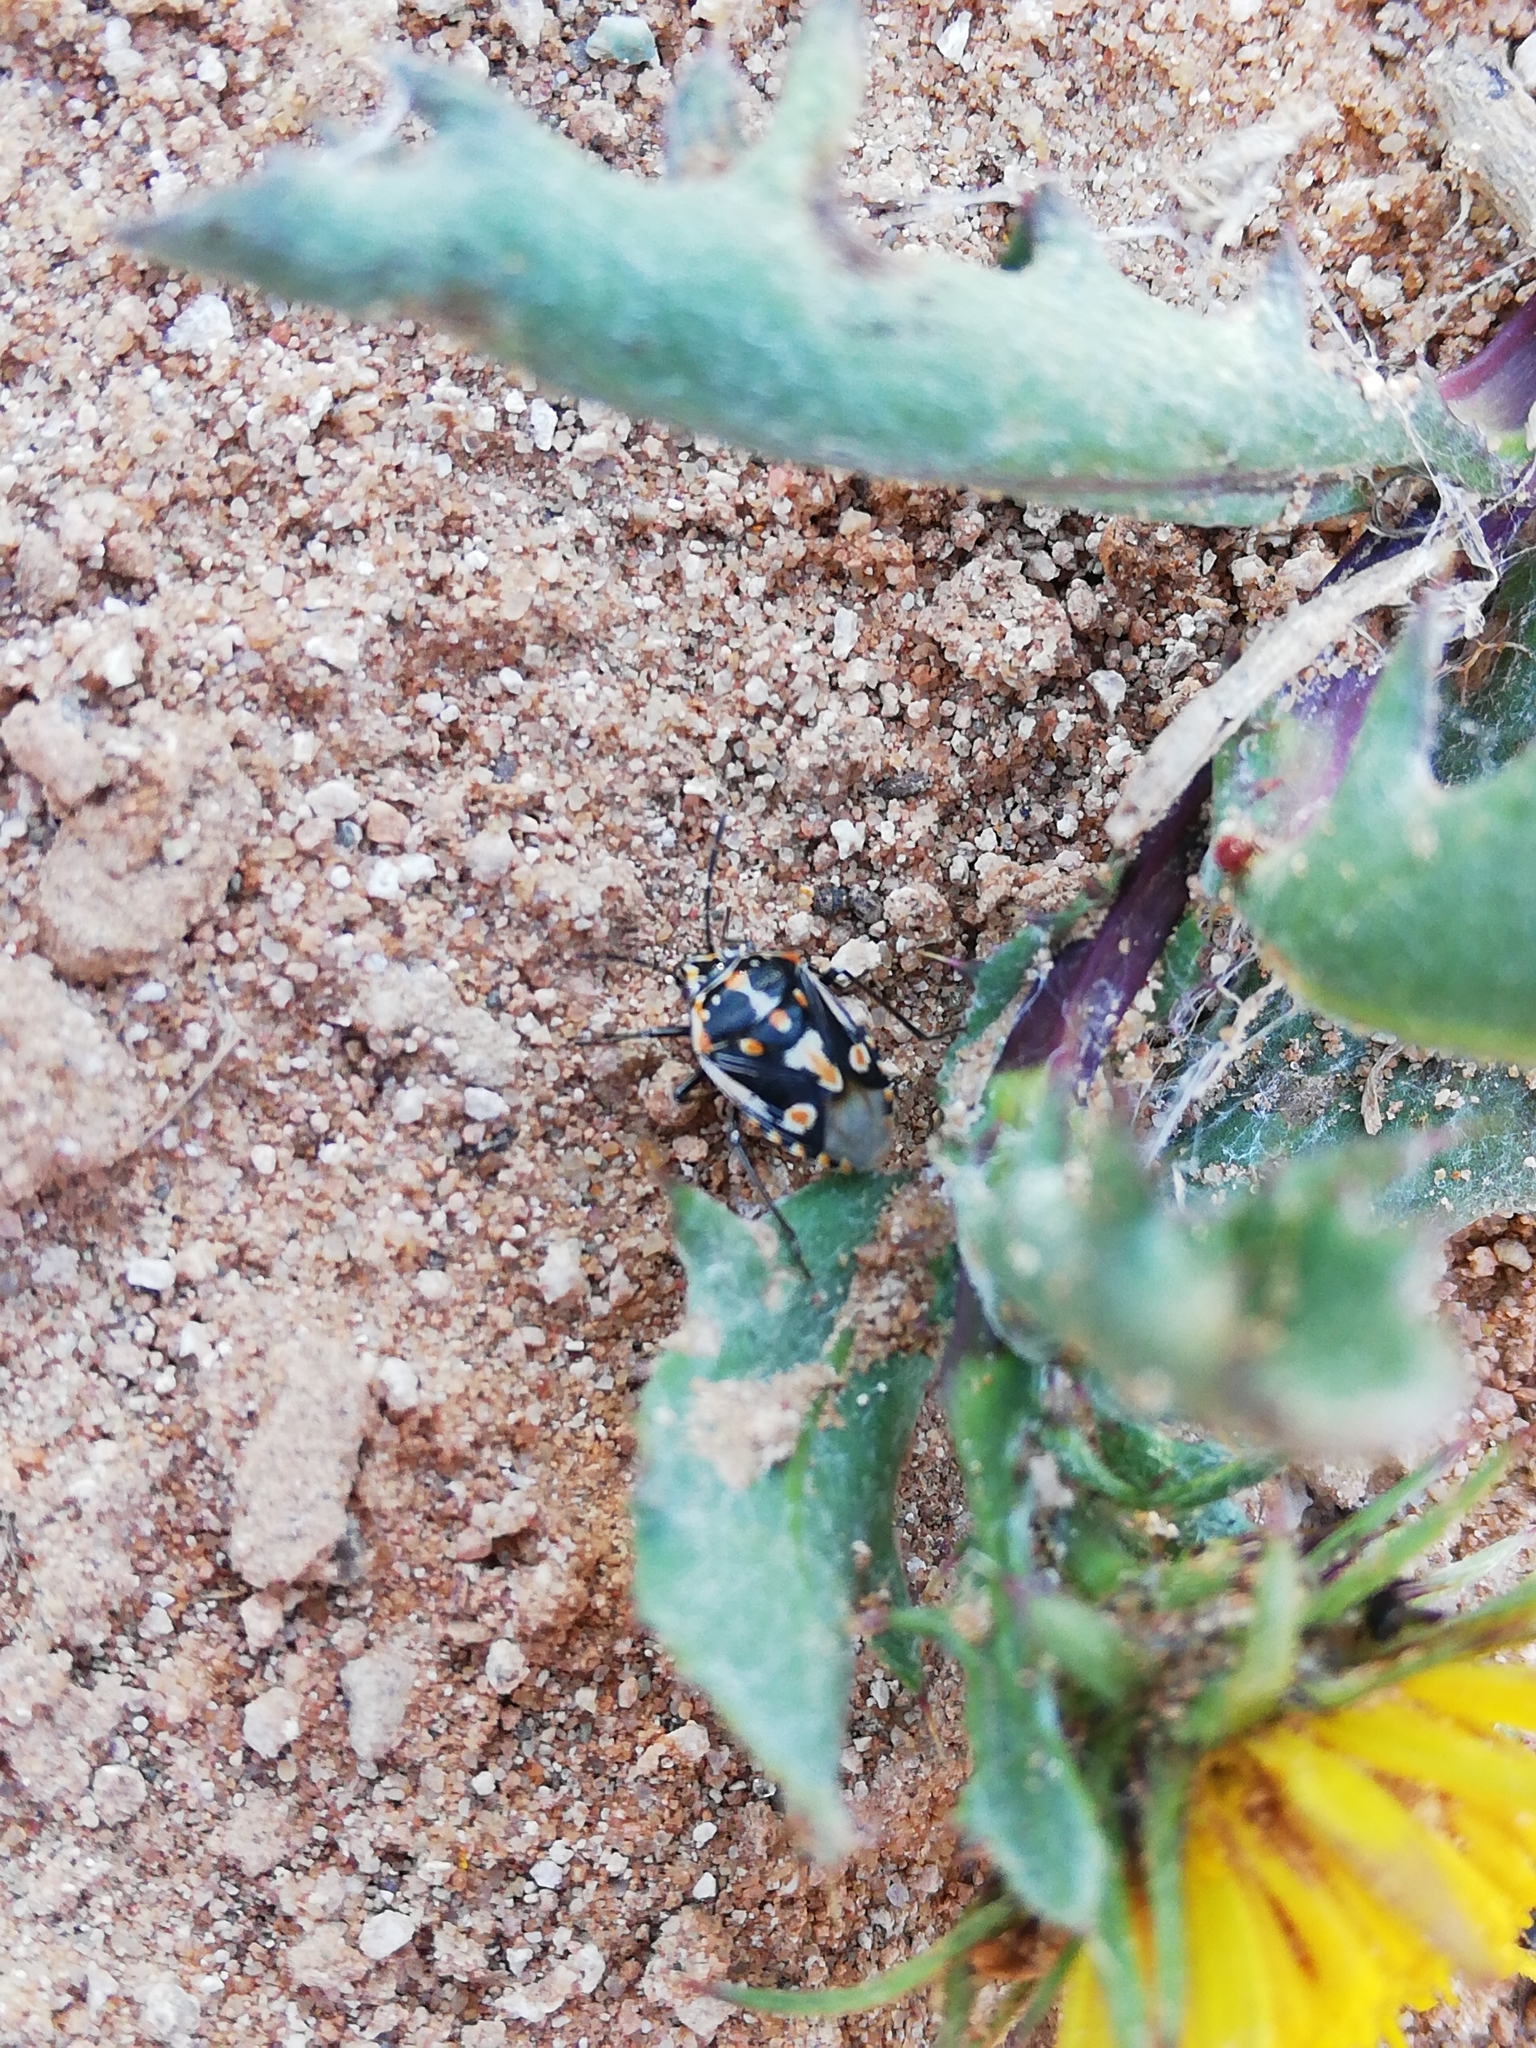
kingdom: Animalia
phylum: Arthropoda
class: Insecta
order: Hemiptera
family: Pentatomidae
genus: Bagrada
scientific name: Bagrada hilaris
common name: Bagrada bug
